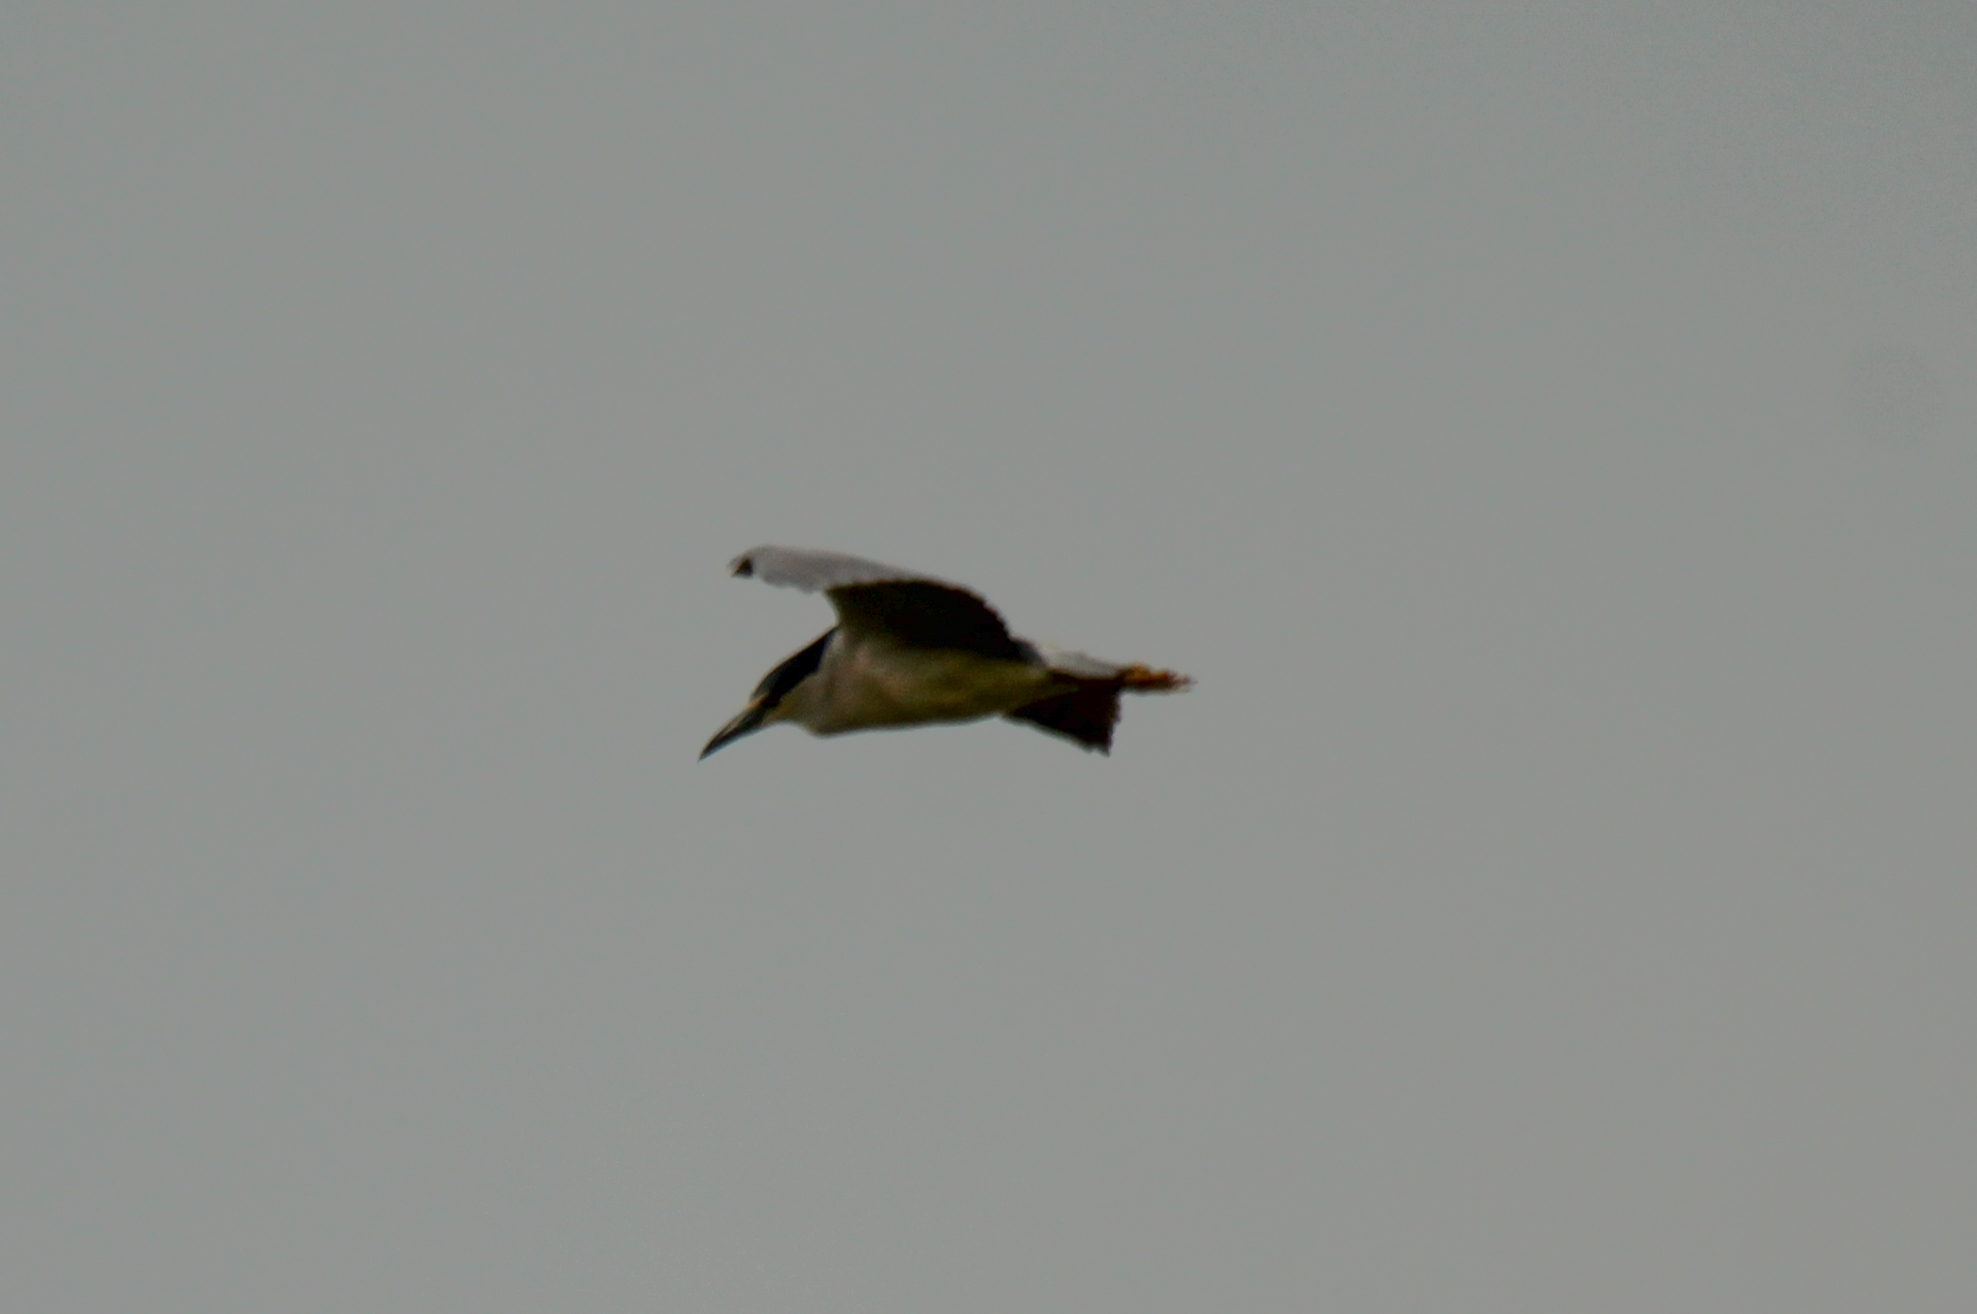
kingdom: Animalia
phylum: Chordata
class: Aves
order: Pelecaniformes
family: Ardeidae
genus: Nycticorax
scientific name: Nycticorax nycticorax
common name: Black-crowned night heron
